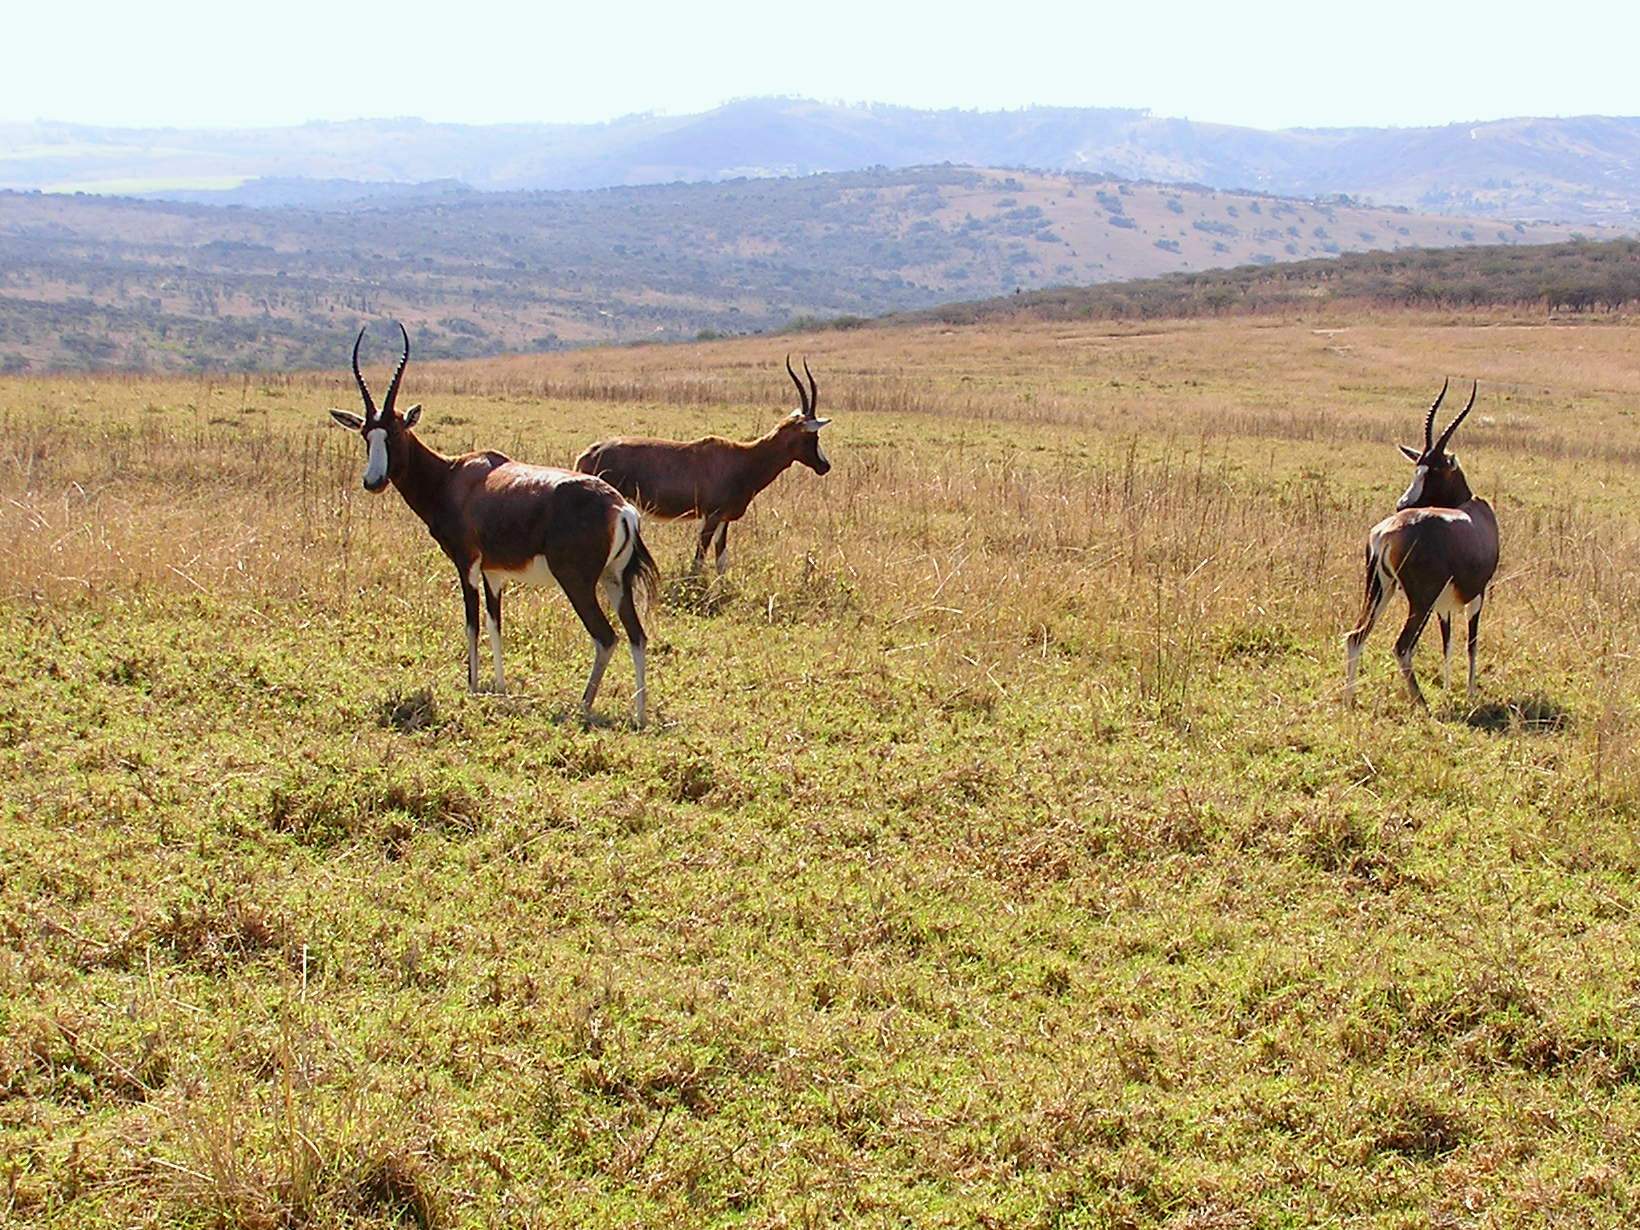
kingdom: Animalia
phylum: Chordata
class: Mammalia
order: Artiodactyla
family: Bovidae
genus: Damaliscus
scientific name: Damaliscus pygargus
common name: Bontebok
